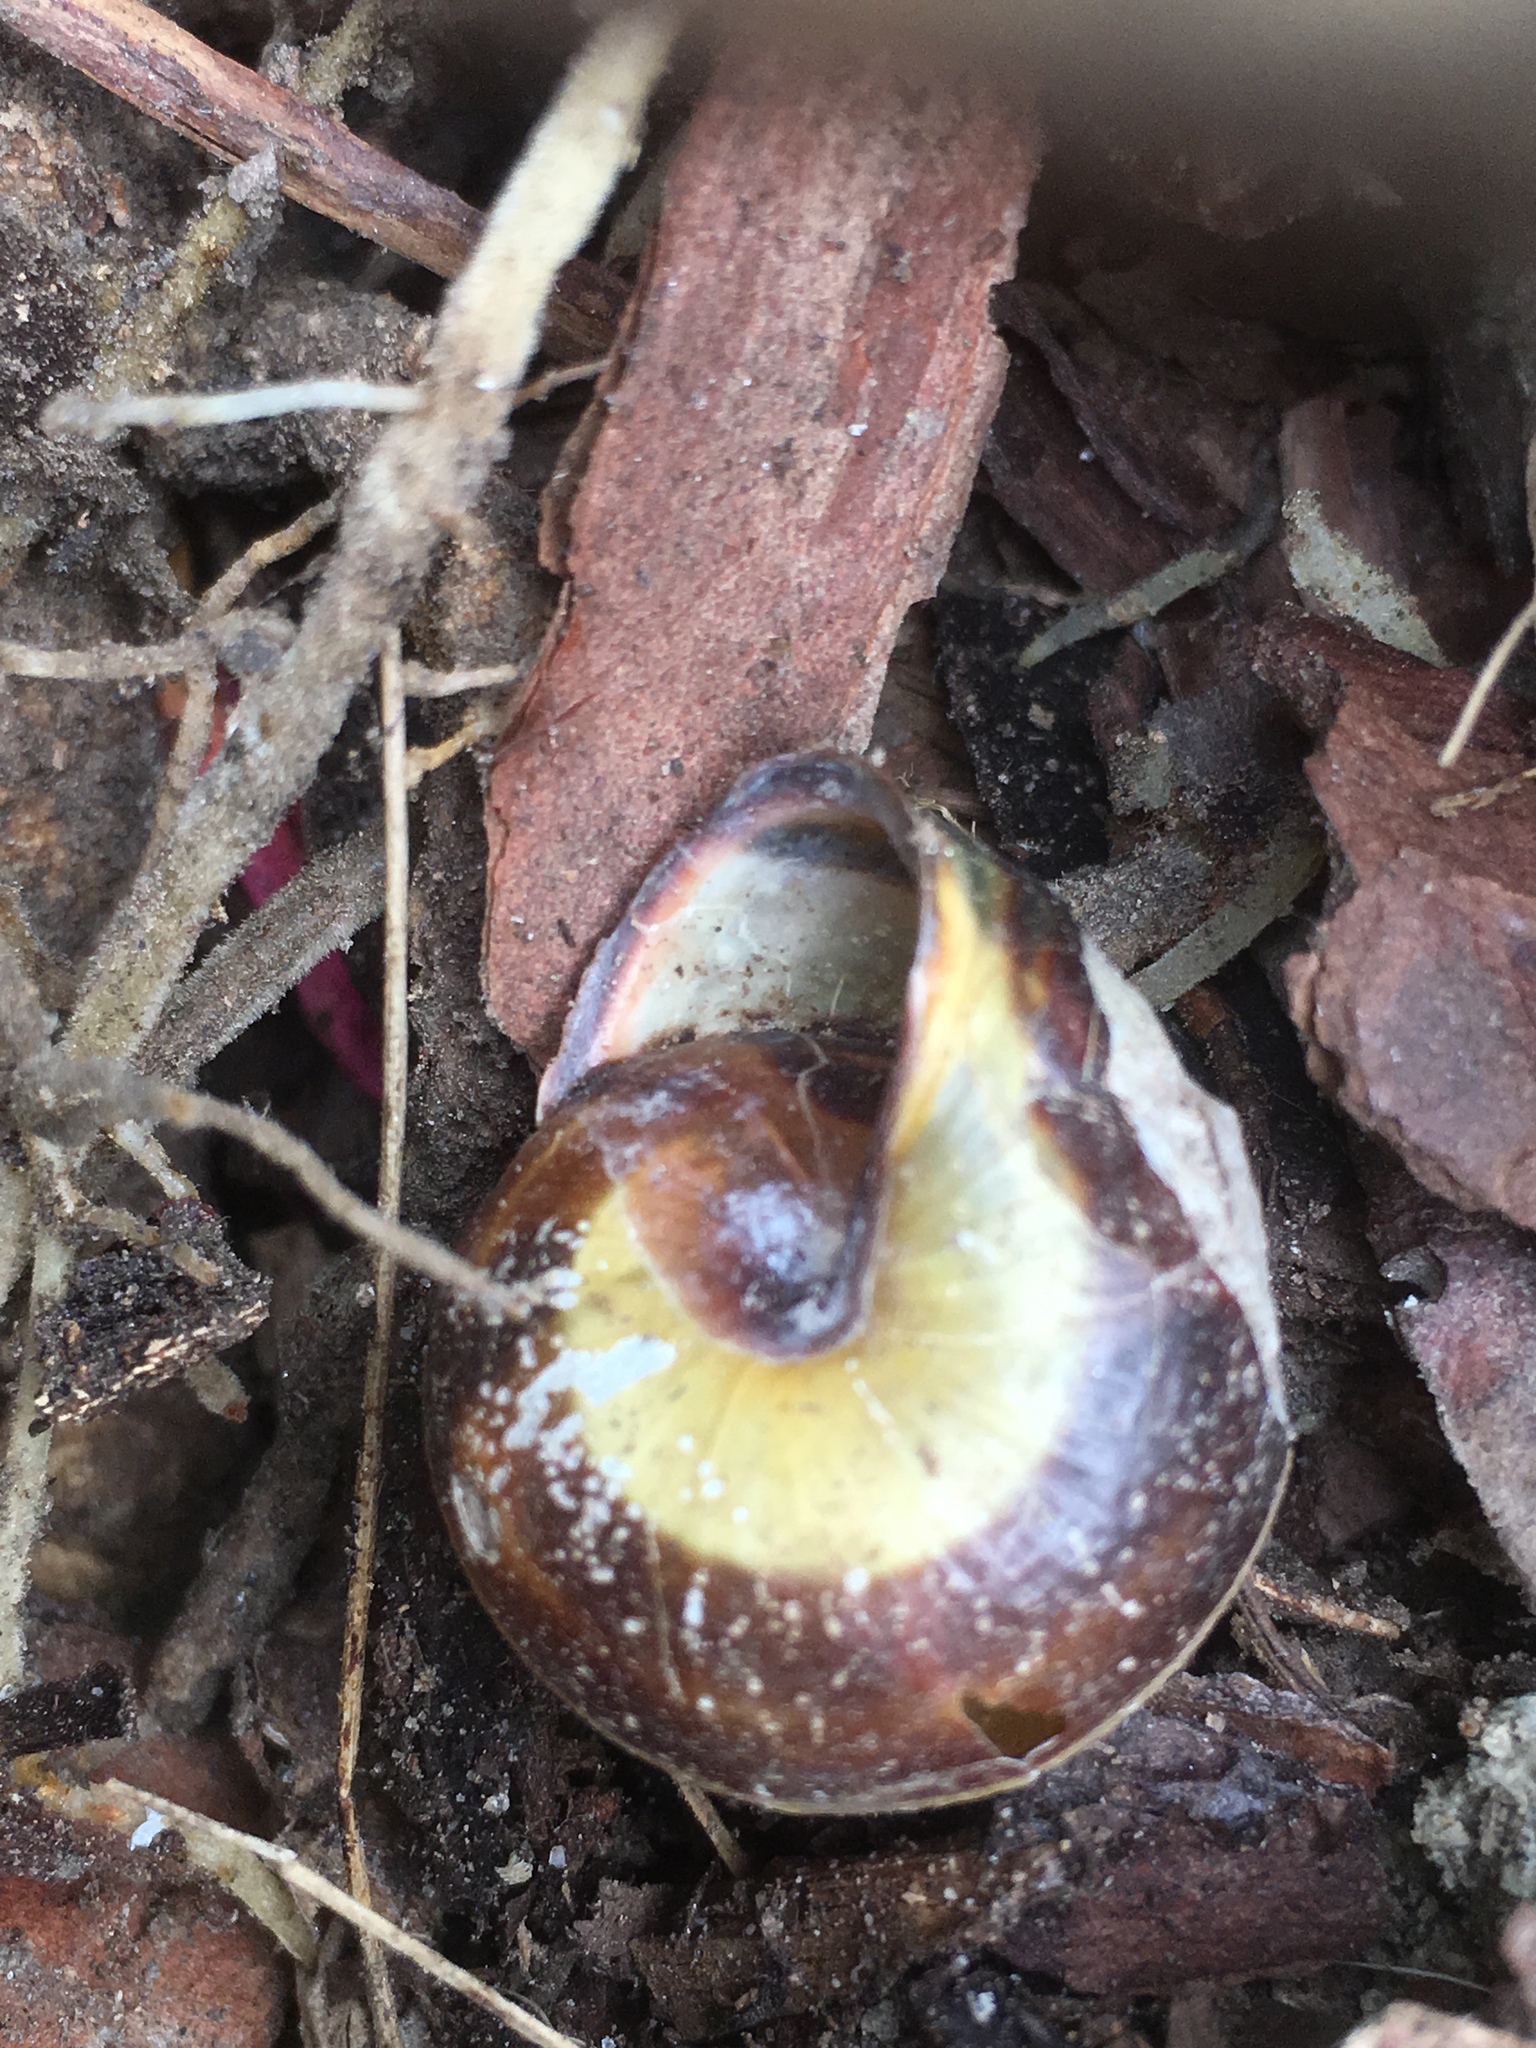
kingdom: Animalia
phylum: Mollusca
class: Gastropoda
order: Stylommatophora
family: Helicidae
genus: Cepaea
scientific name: Cepaea nemoralis
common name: Grovesnail
